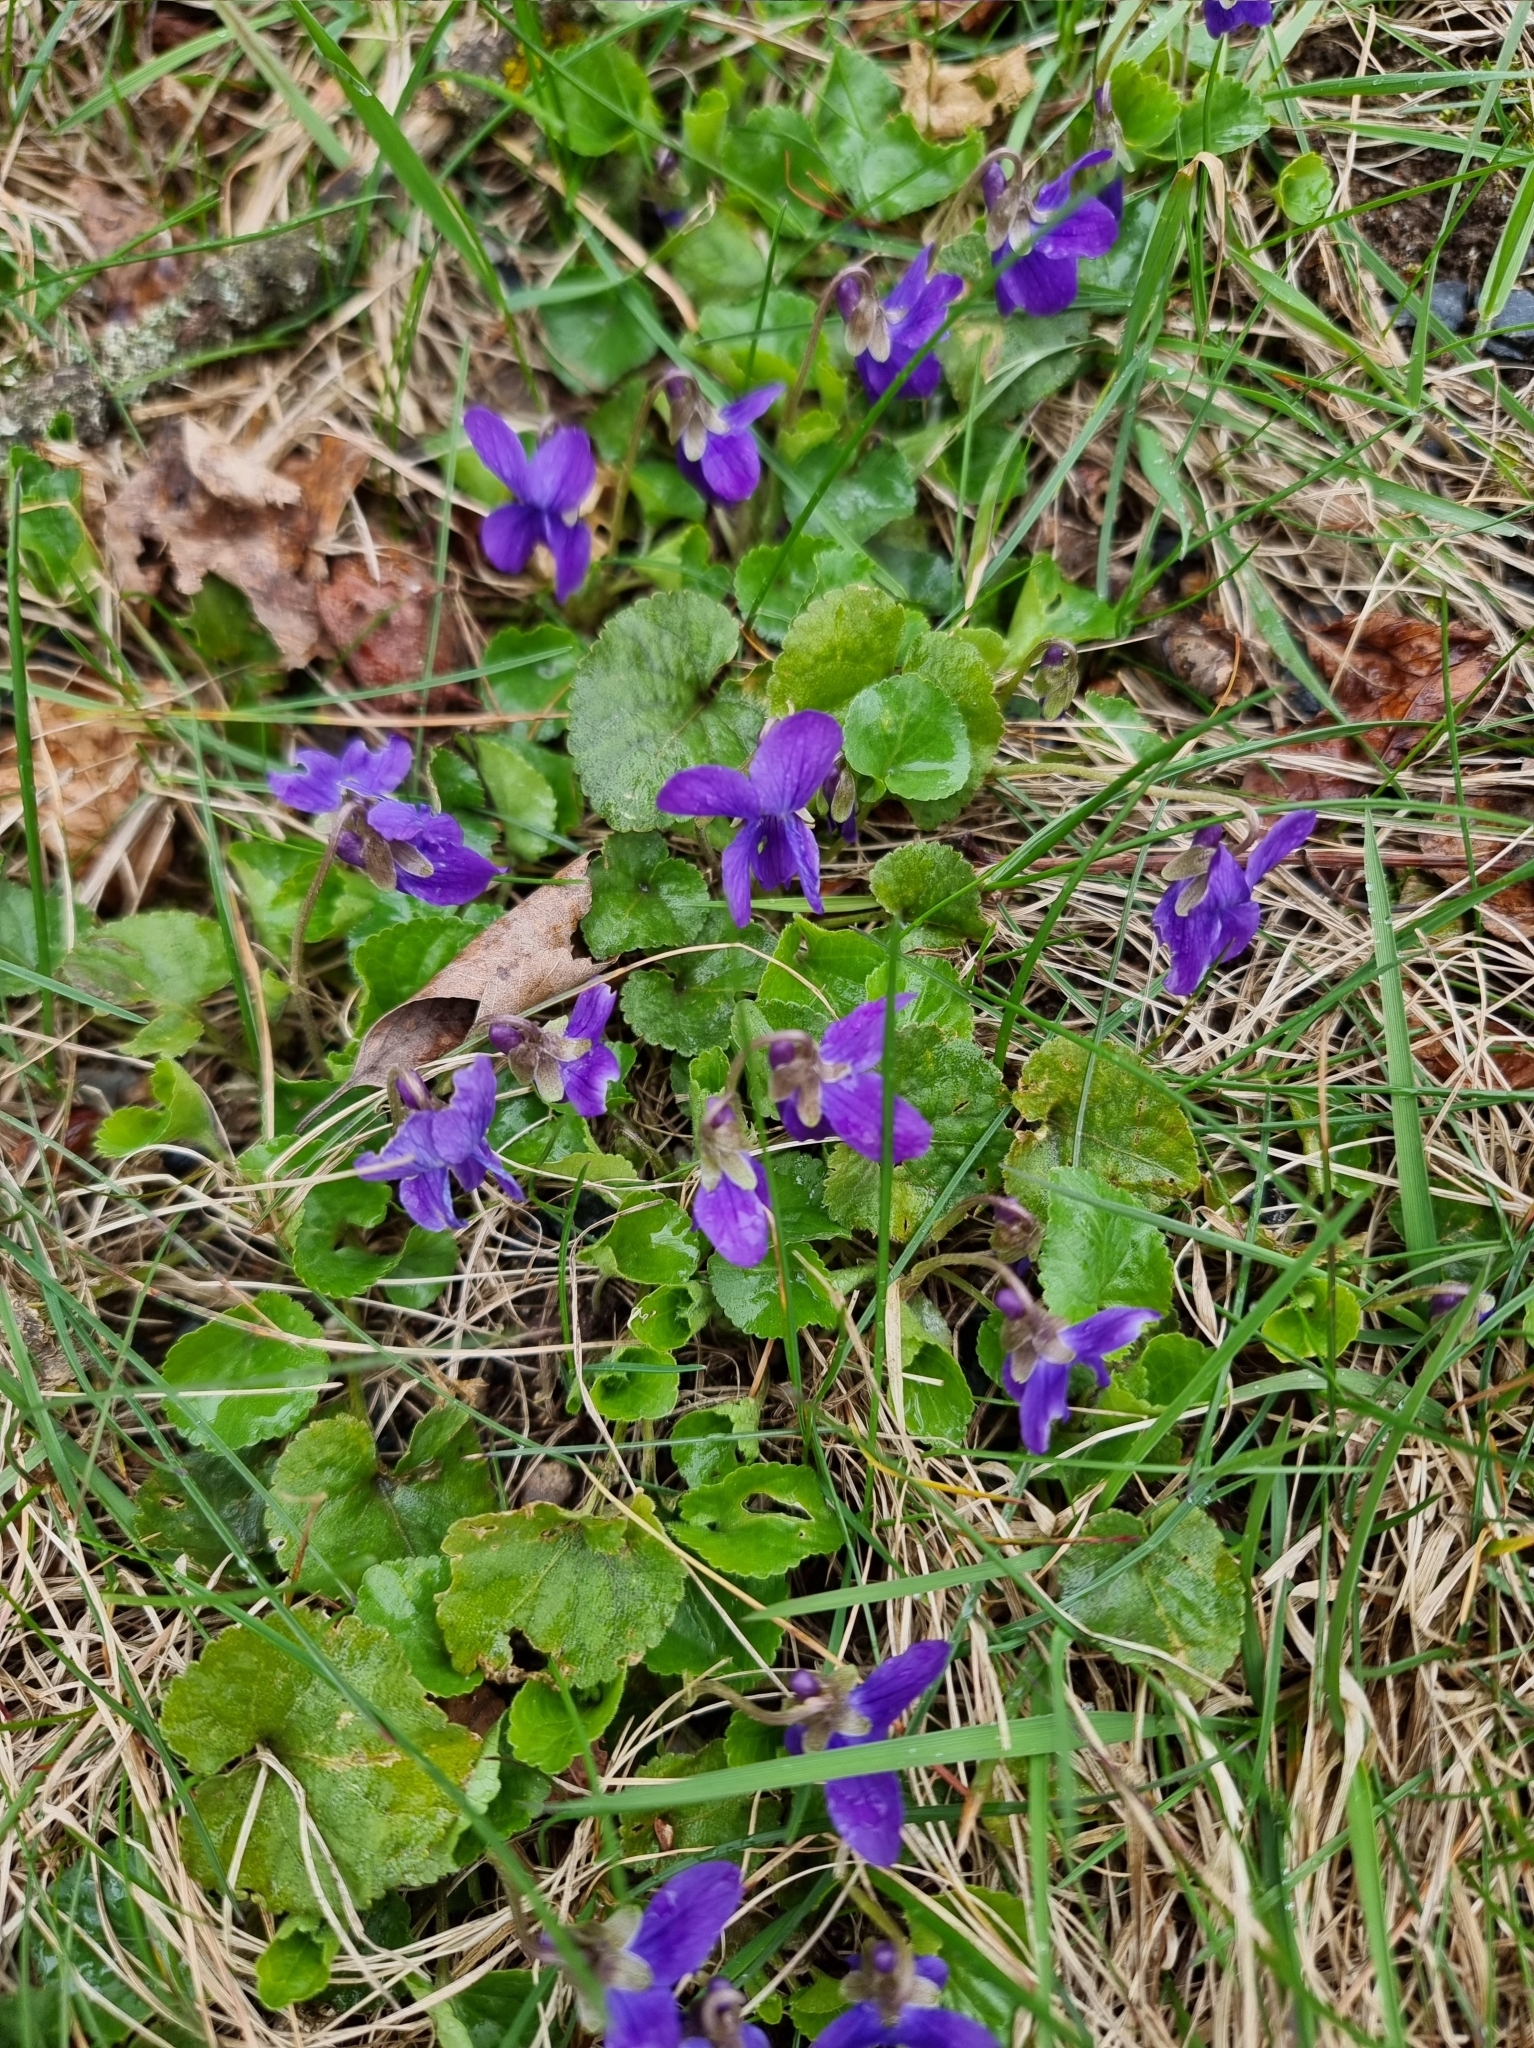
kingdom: Plantae
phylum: Tracheophyta
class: Magnoliopsida
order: Malpighiales
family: Violaceae
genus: Viola
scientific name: Viola odorata
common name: Sweet violet
